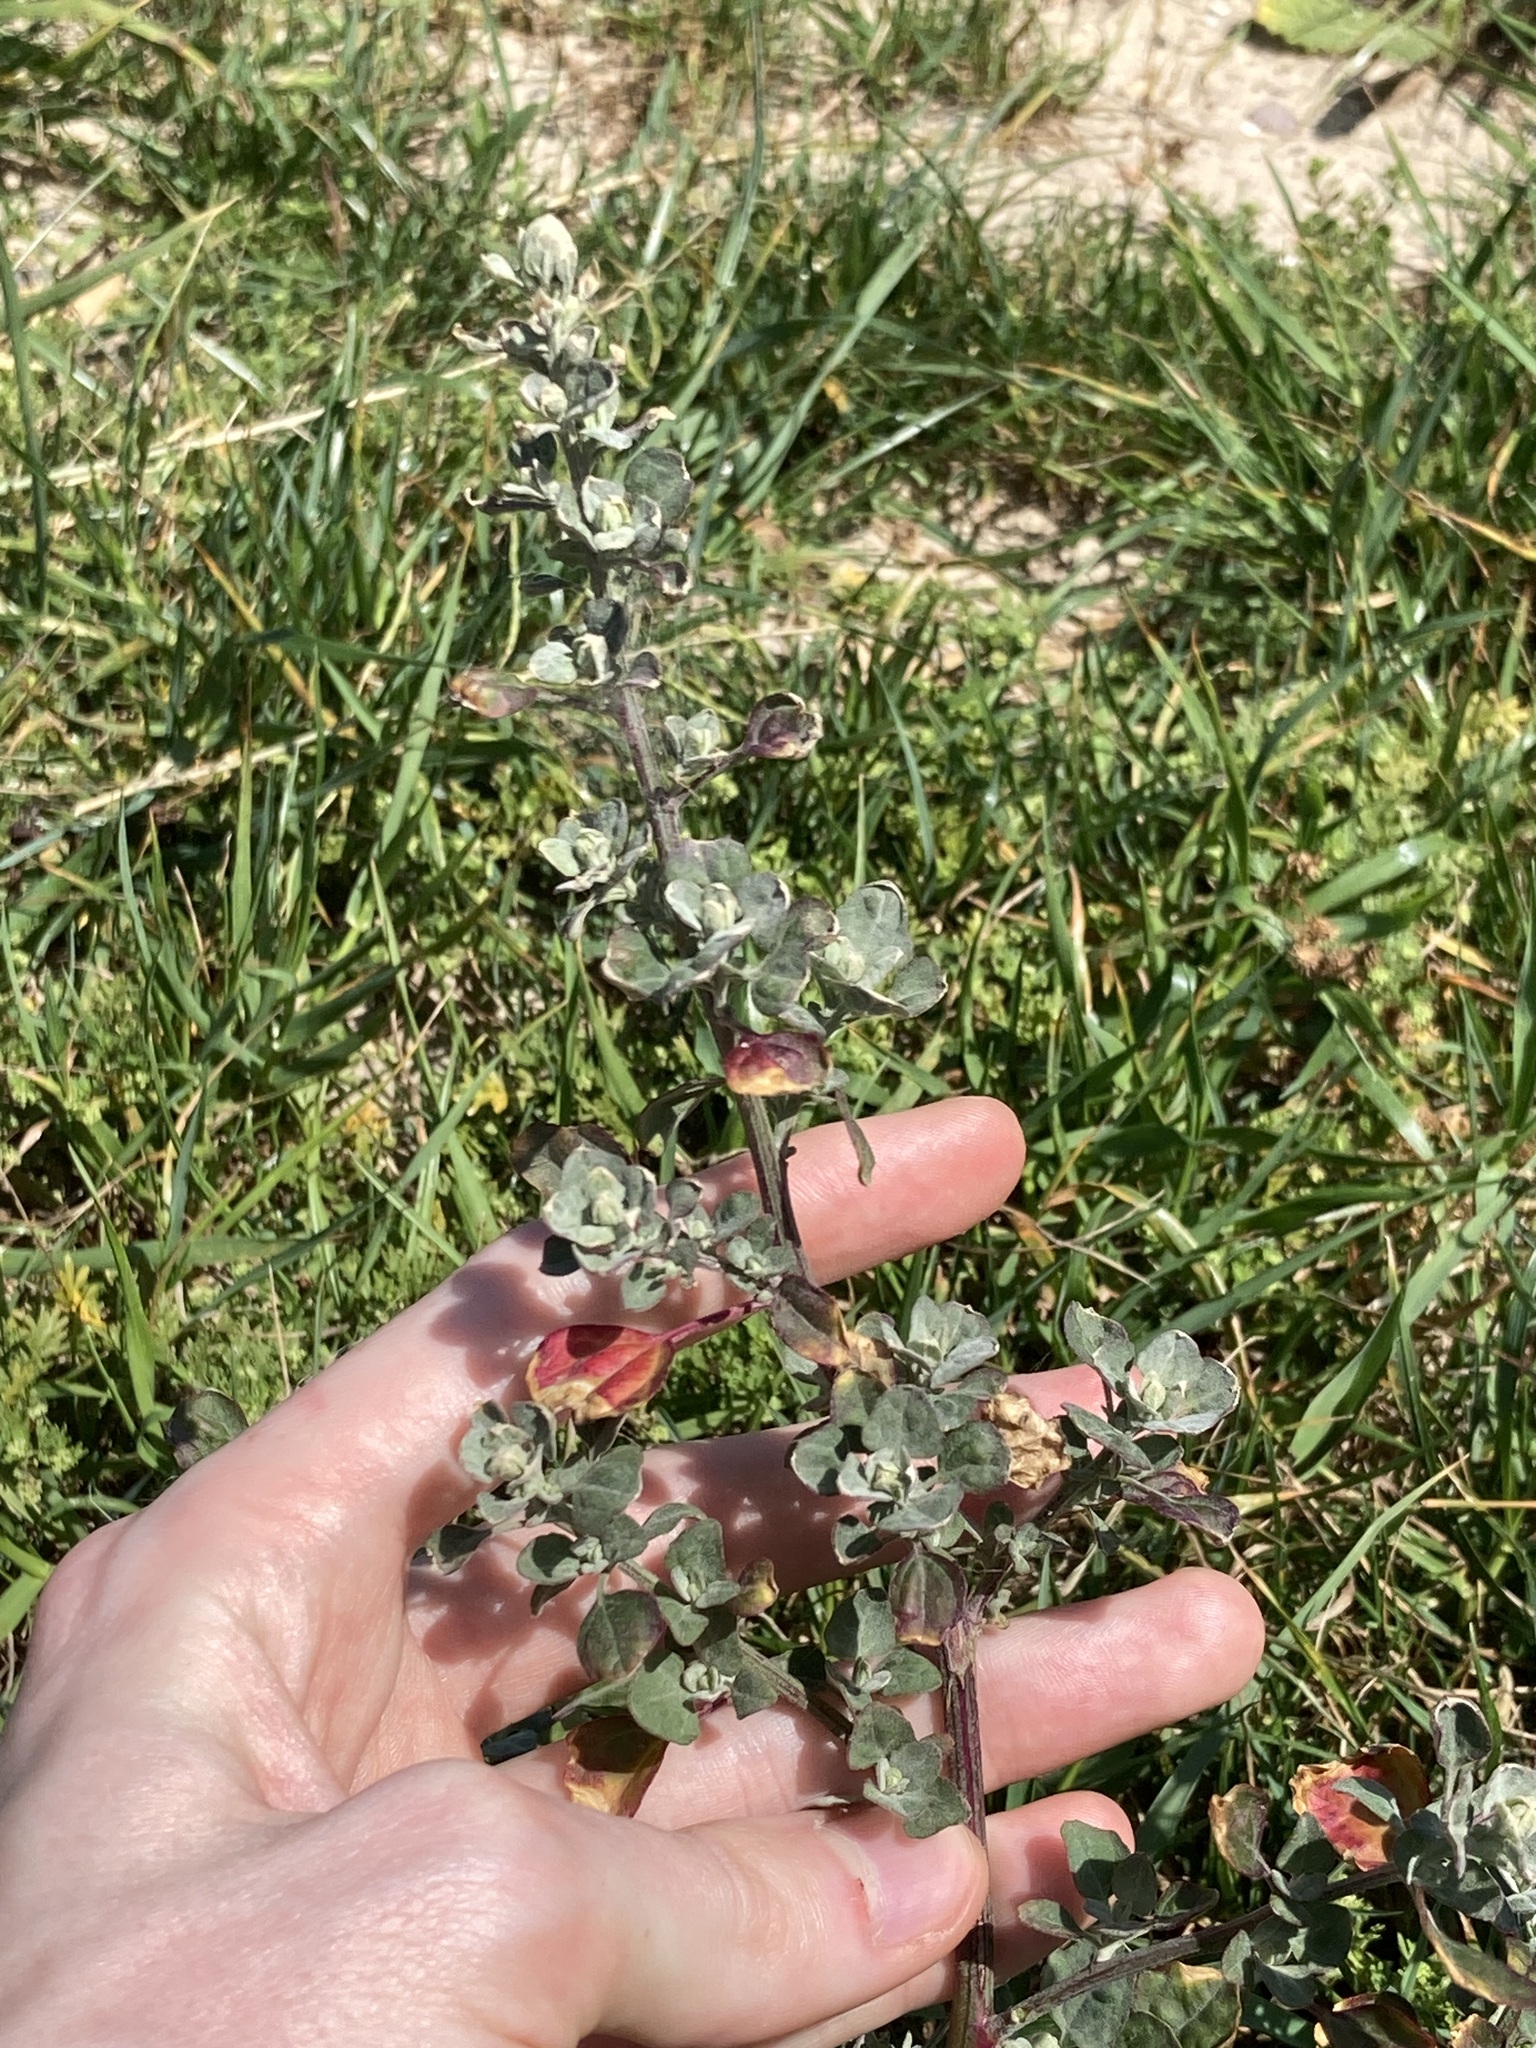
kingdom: Plantae
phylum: Tracheophyta
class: Magnoliopsida
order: Caryophyllales
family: Amaranthaceae
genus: Chenopodium
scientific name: Chenopodium album
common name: Fat-hen
